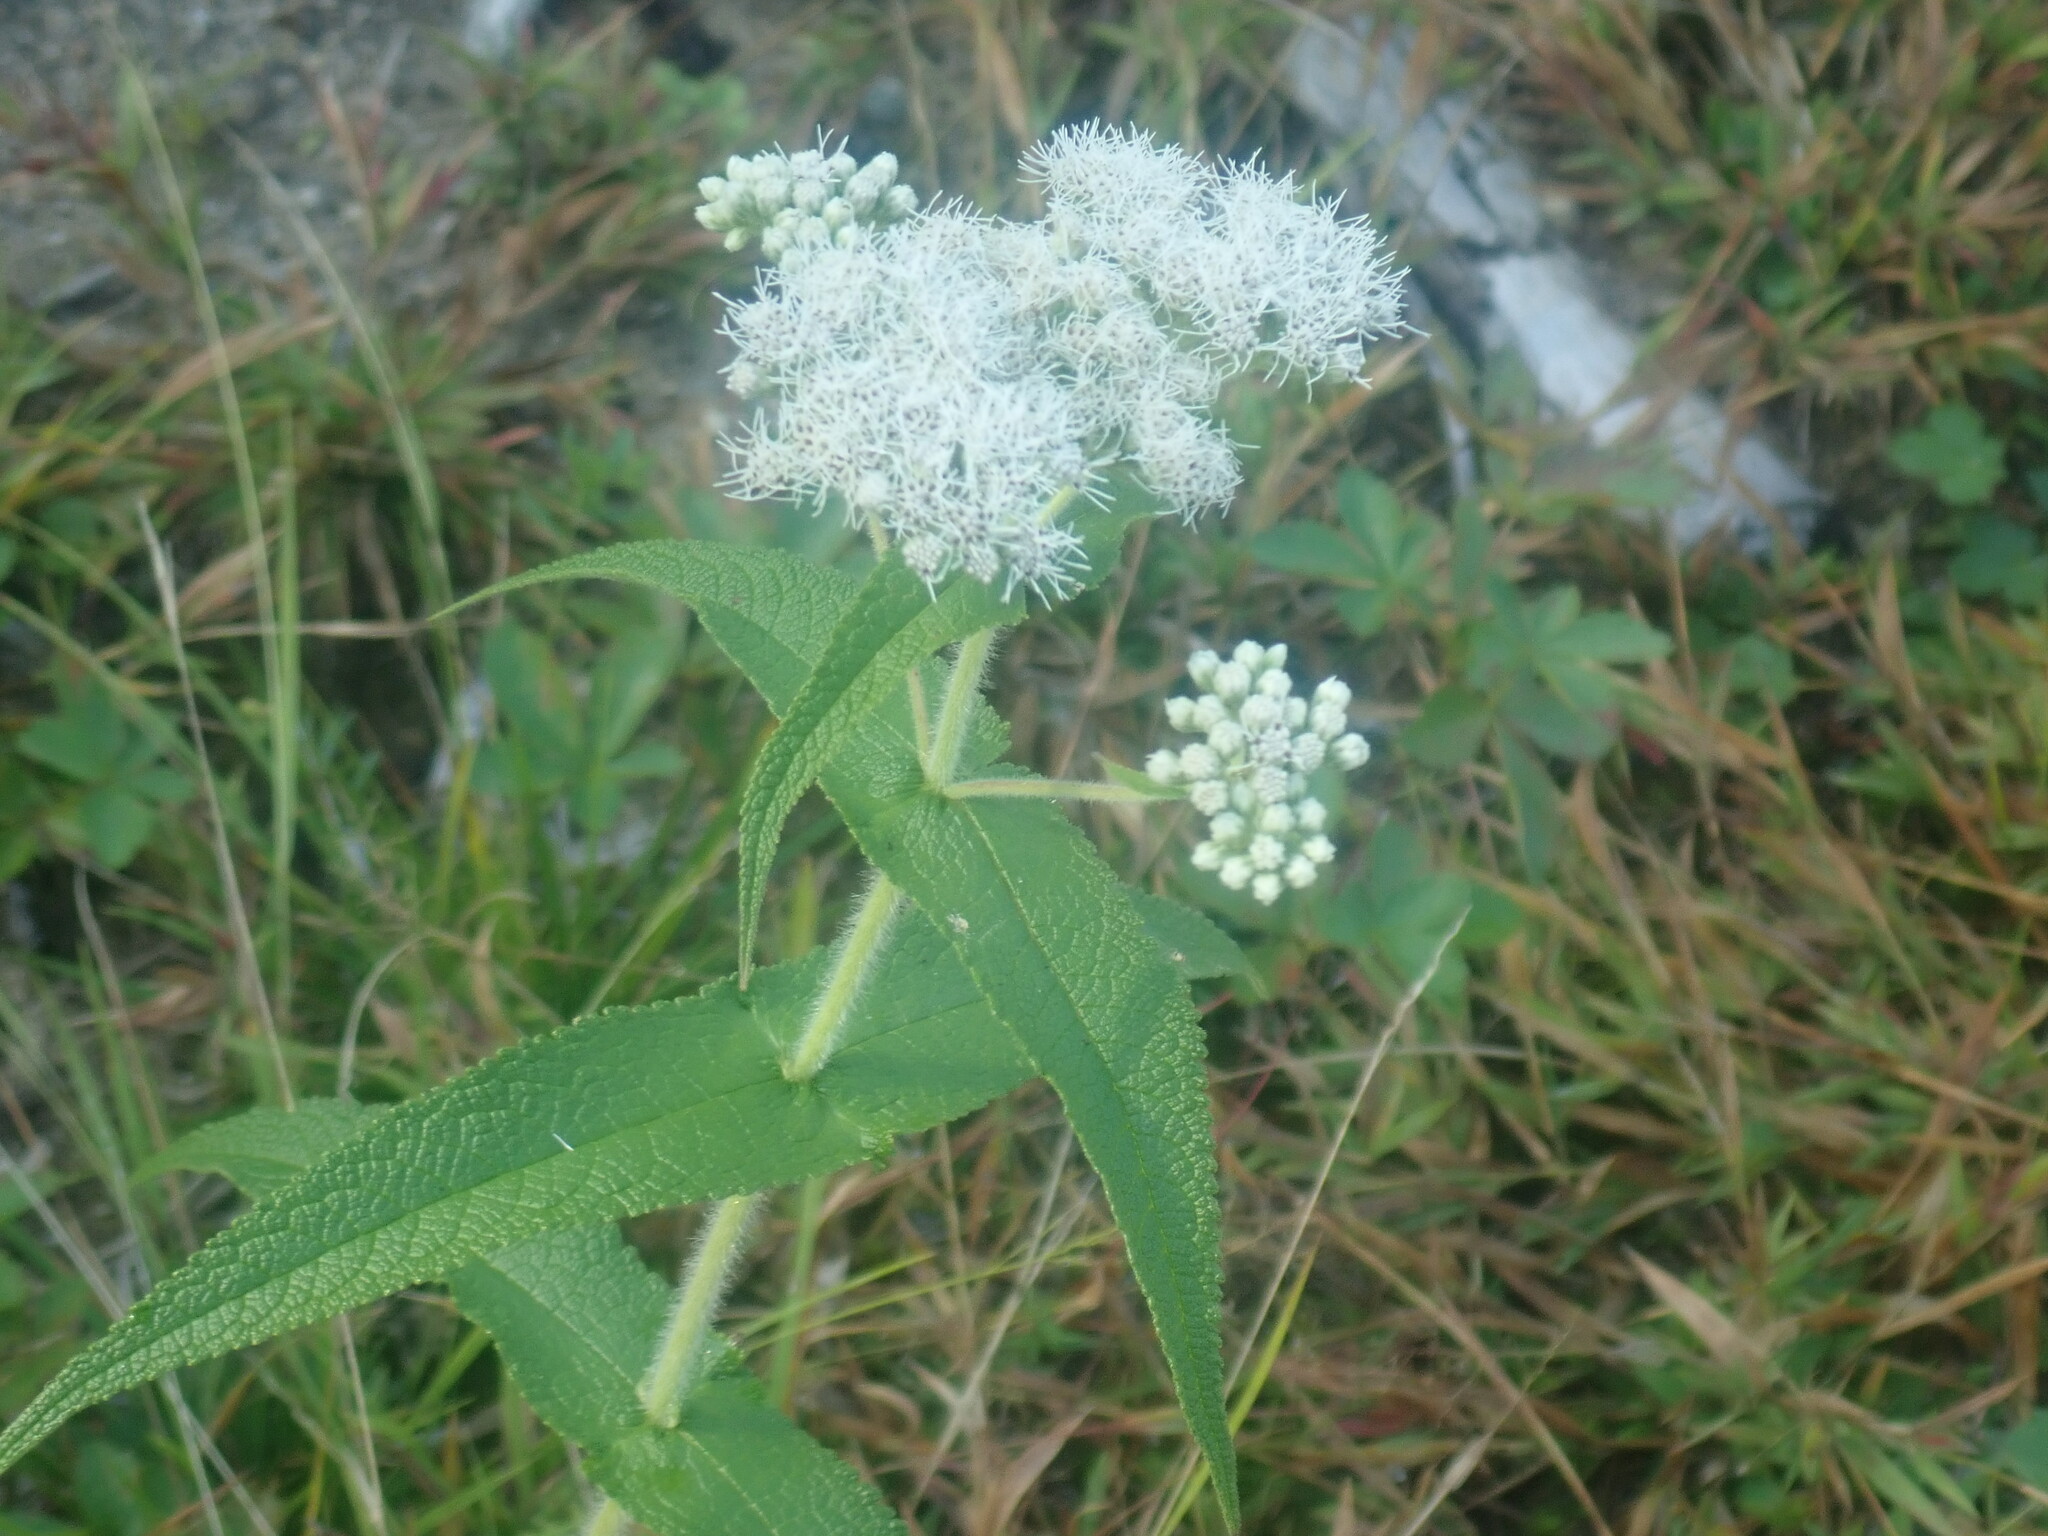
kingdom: Plantae
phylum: Tracheophyta
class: Magnoliopsida
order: Asterales
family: Asteraceae
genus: Eupatorium
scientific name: Eupatorium perfoliatum
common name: Boneset
